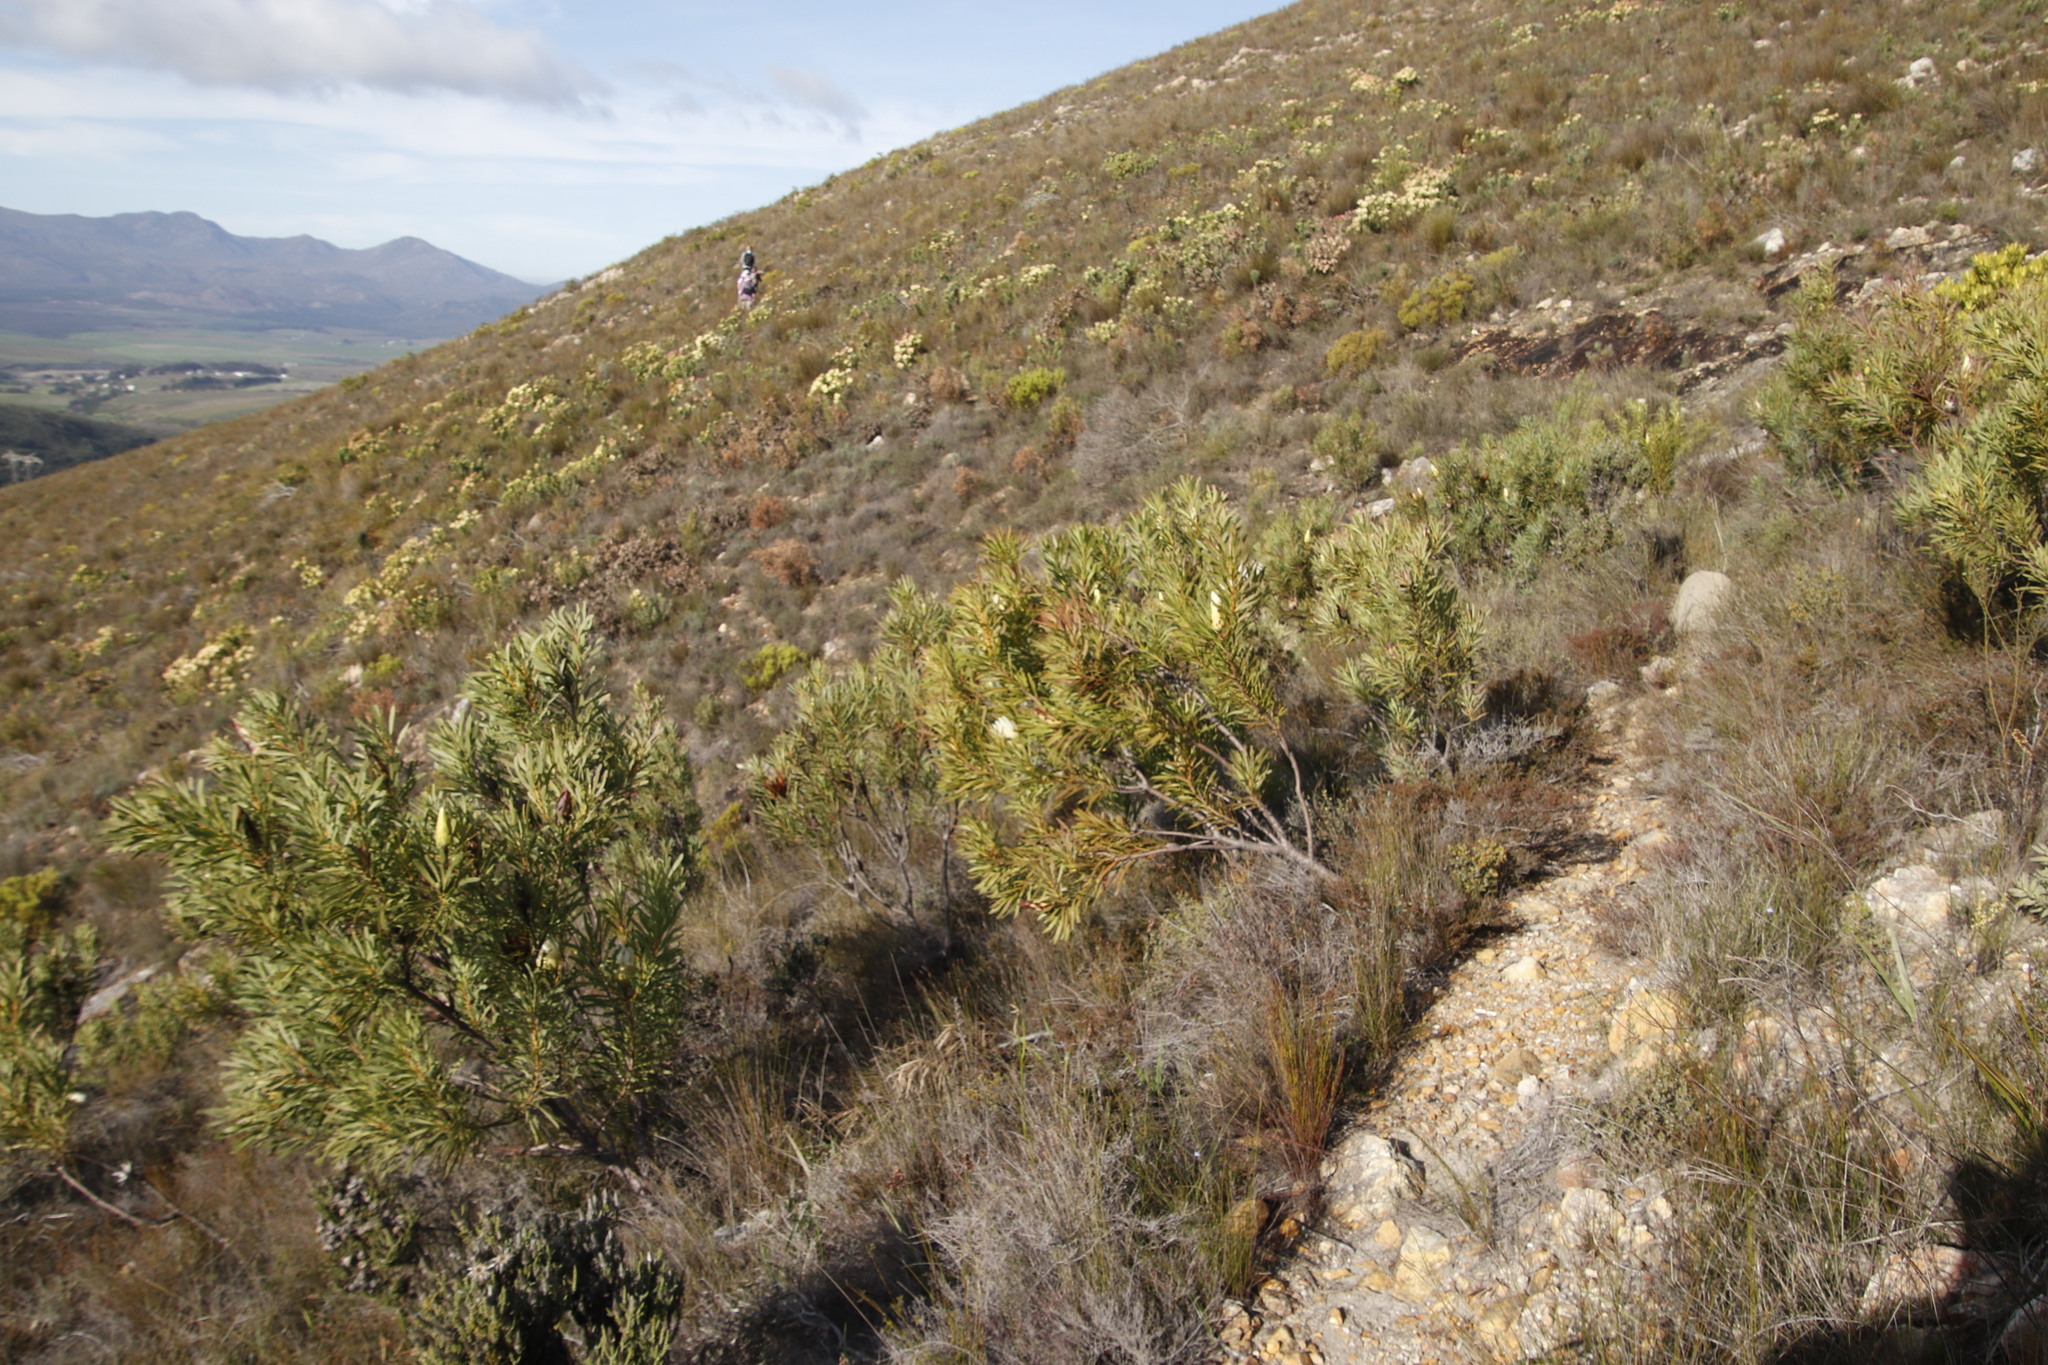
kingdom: Plantae
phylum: Tracheophyta
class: Magnoliopsida
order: Proteales
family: Proteaceae
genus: Protea
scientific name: Protea repens
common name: Sugarbush
